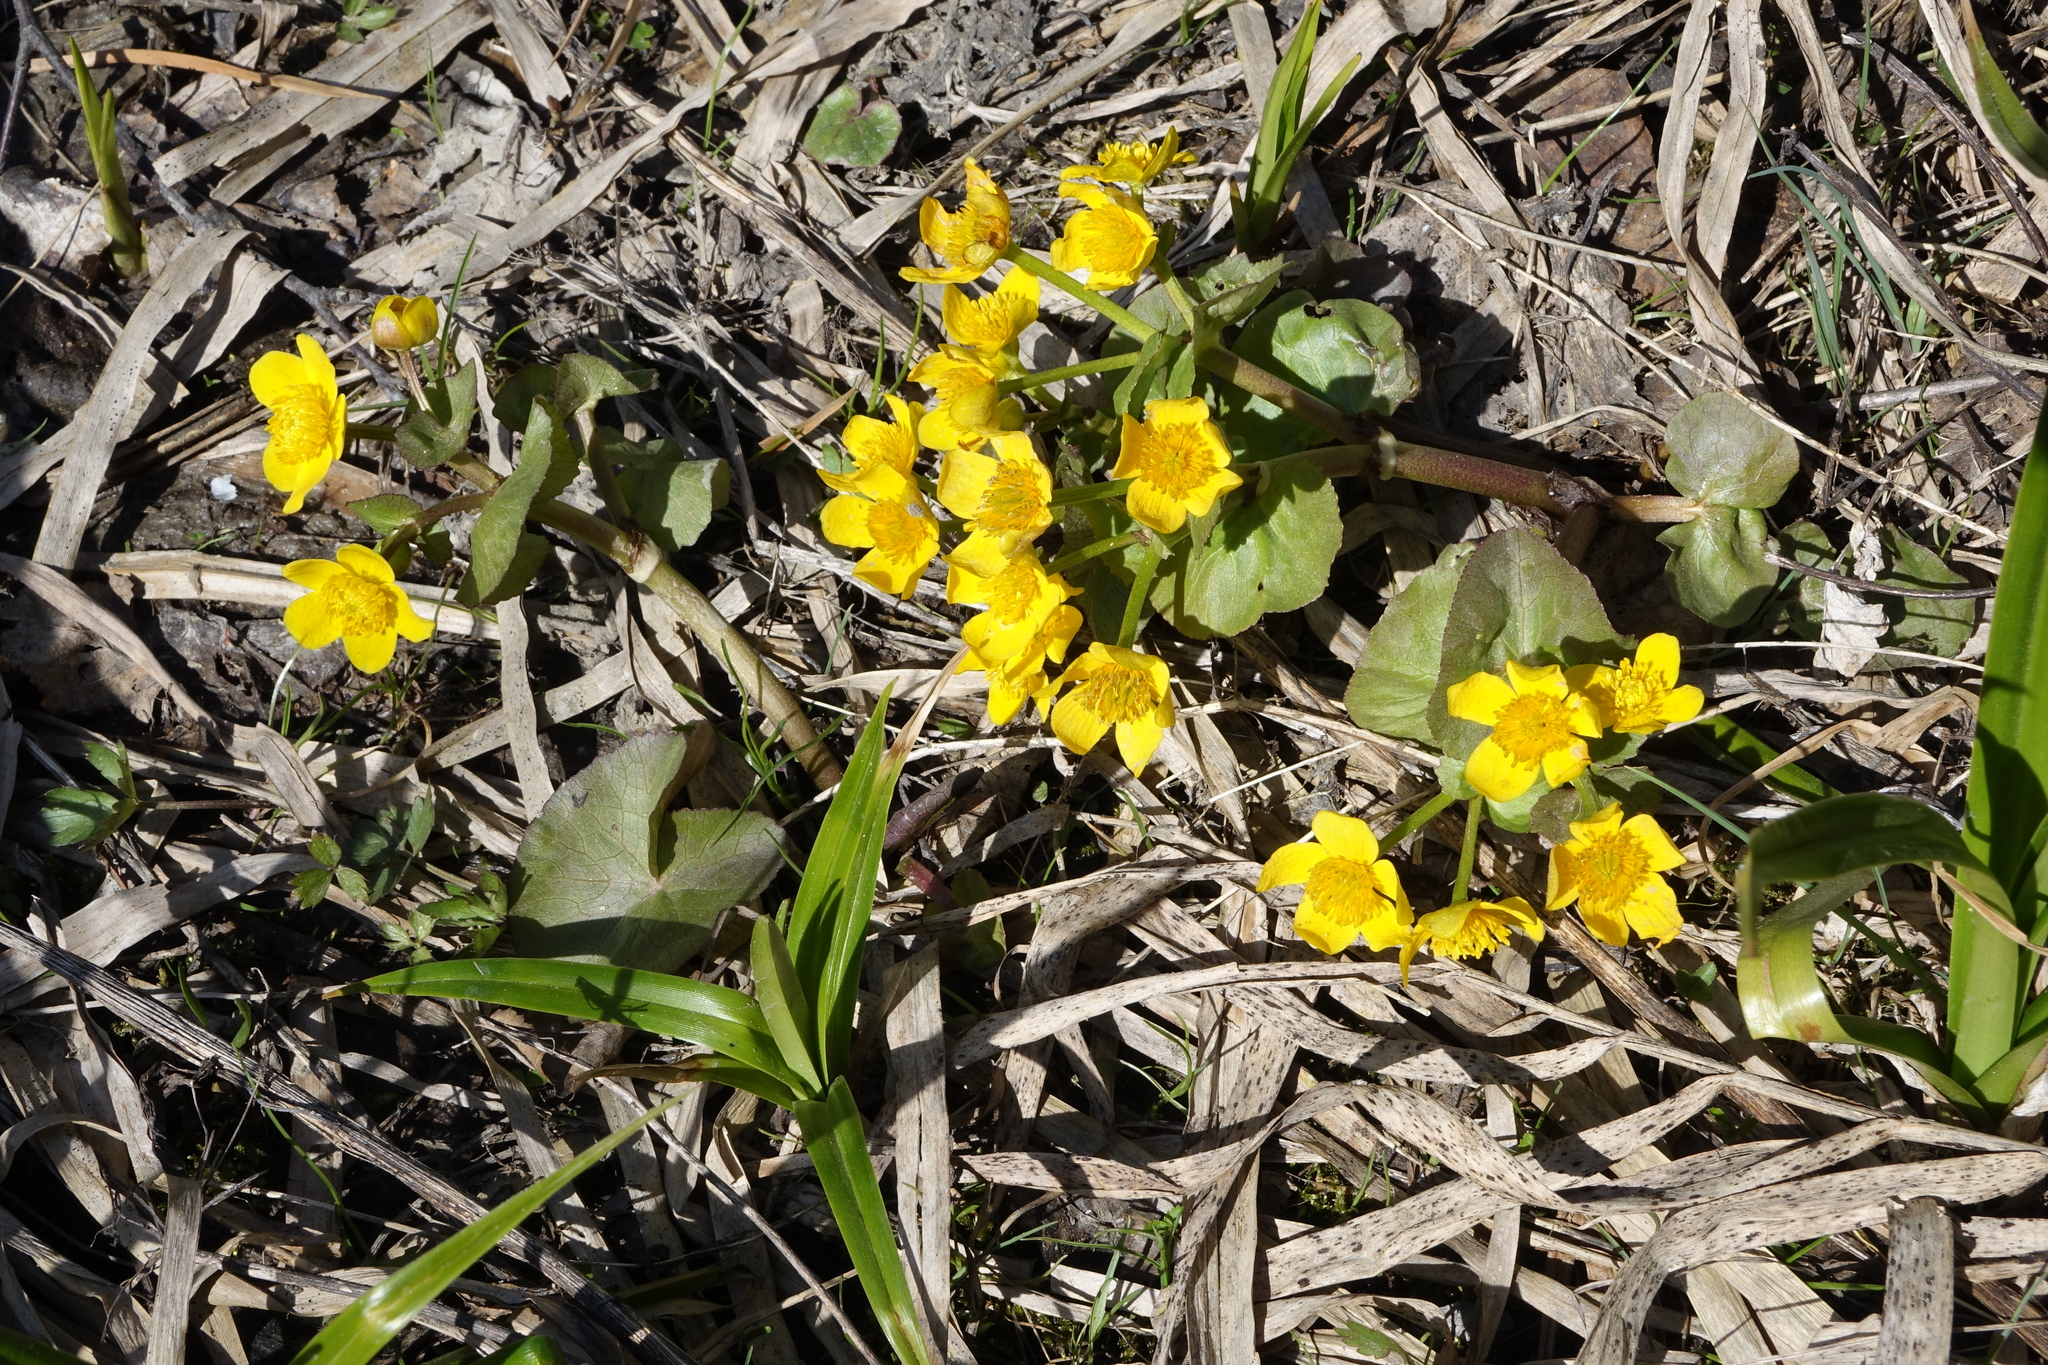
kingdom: Plantae
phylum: Tracheophyta
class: Magnoliopsida
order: Ranunculales
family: Ranunculaceae
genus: Caltha
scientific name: Caltha palustris
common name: Marsh marigold
